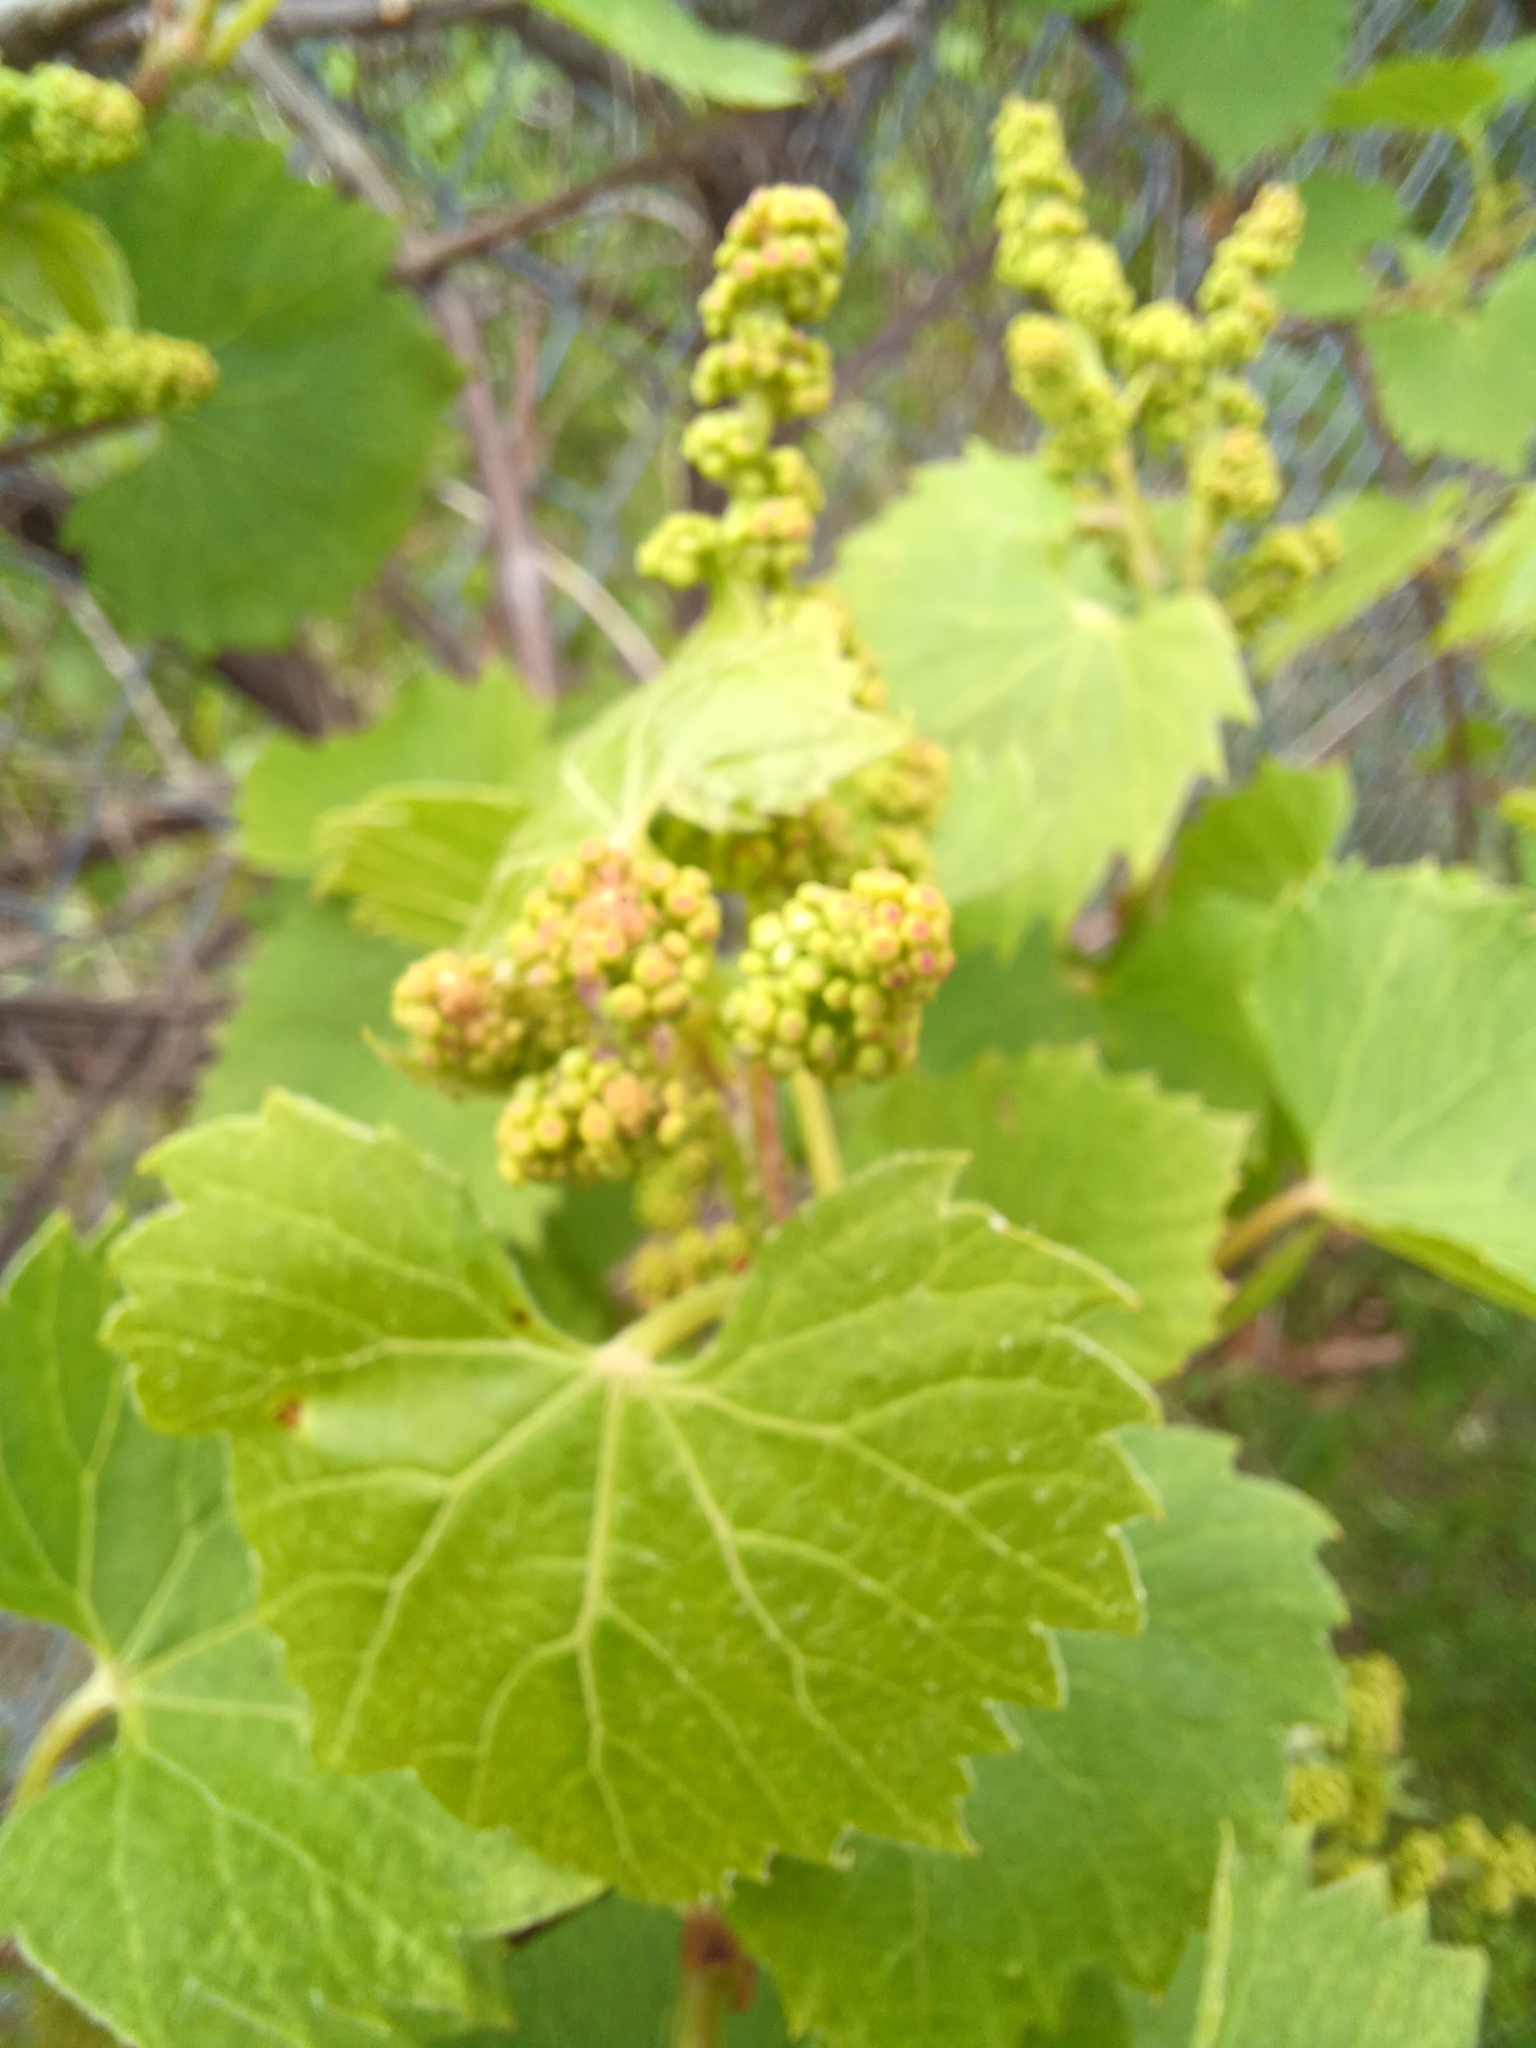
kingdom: Plantae
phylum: Tracheophyta
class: Magnoliopsida
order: Vitales
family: Vitaceae
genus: Vitis
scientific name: Vitis riparia
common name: Frost grape
